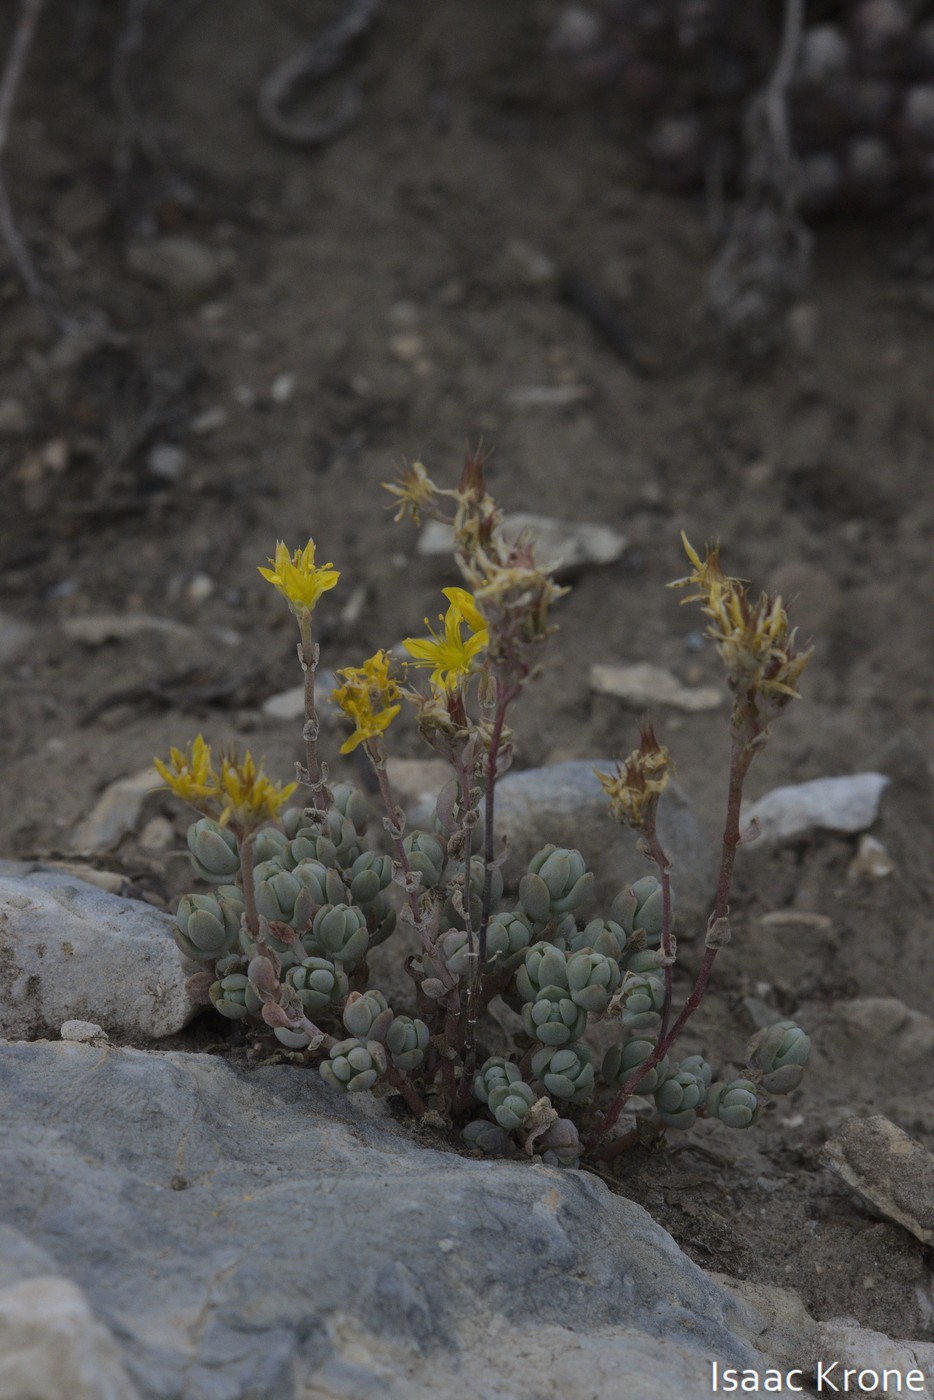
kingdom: Plantae
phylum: Tracheophyta
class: Magnoliopsida
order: Saxifragales
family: Crassulaceae
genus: Sedum
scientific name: Sedum debile
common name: Weak-stem stonecrop
